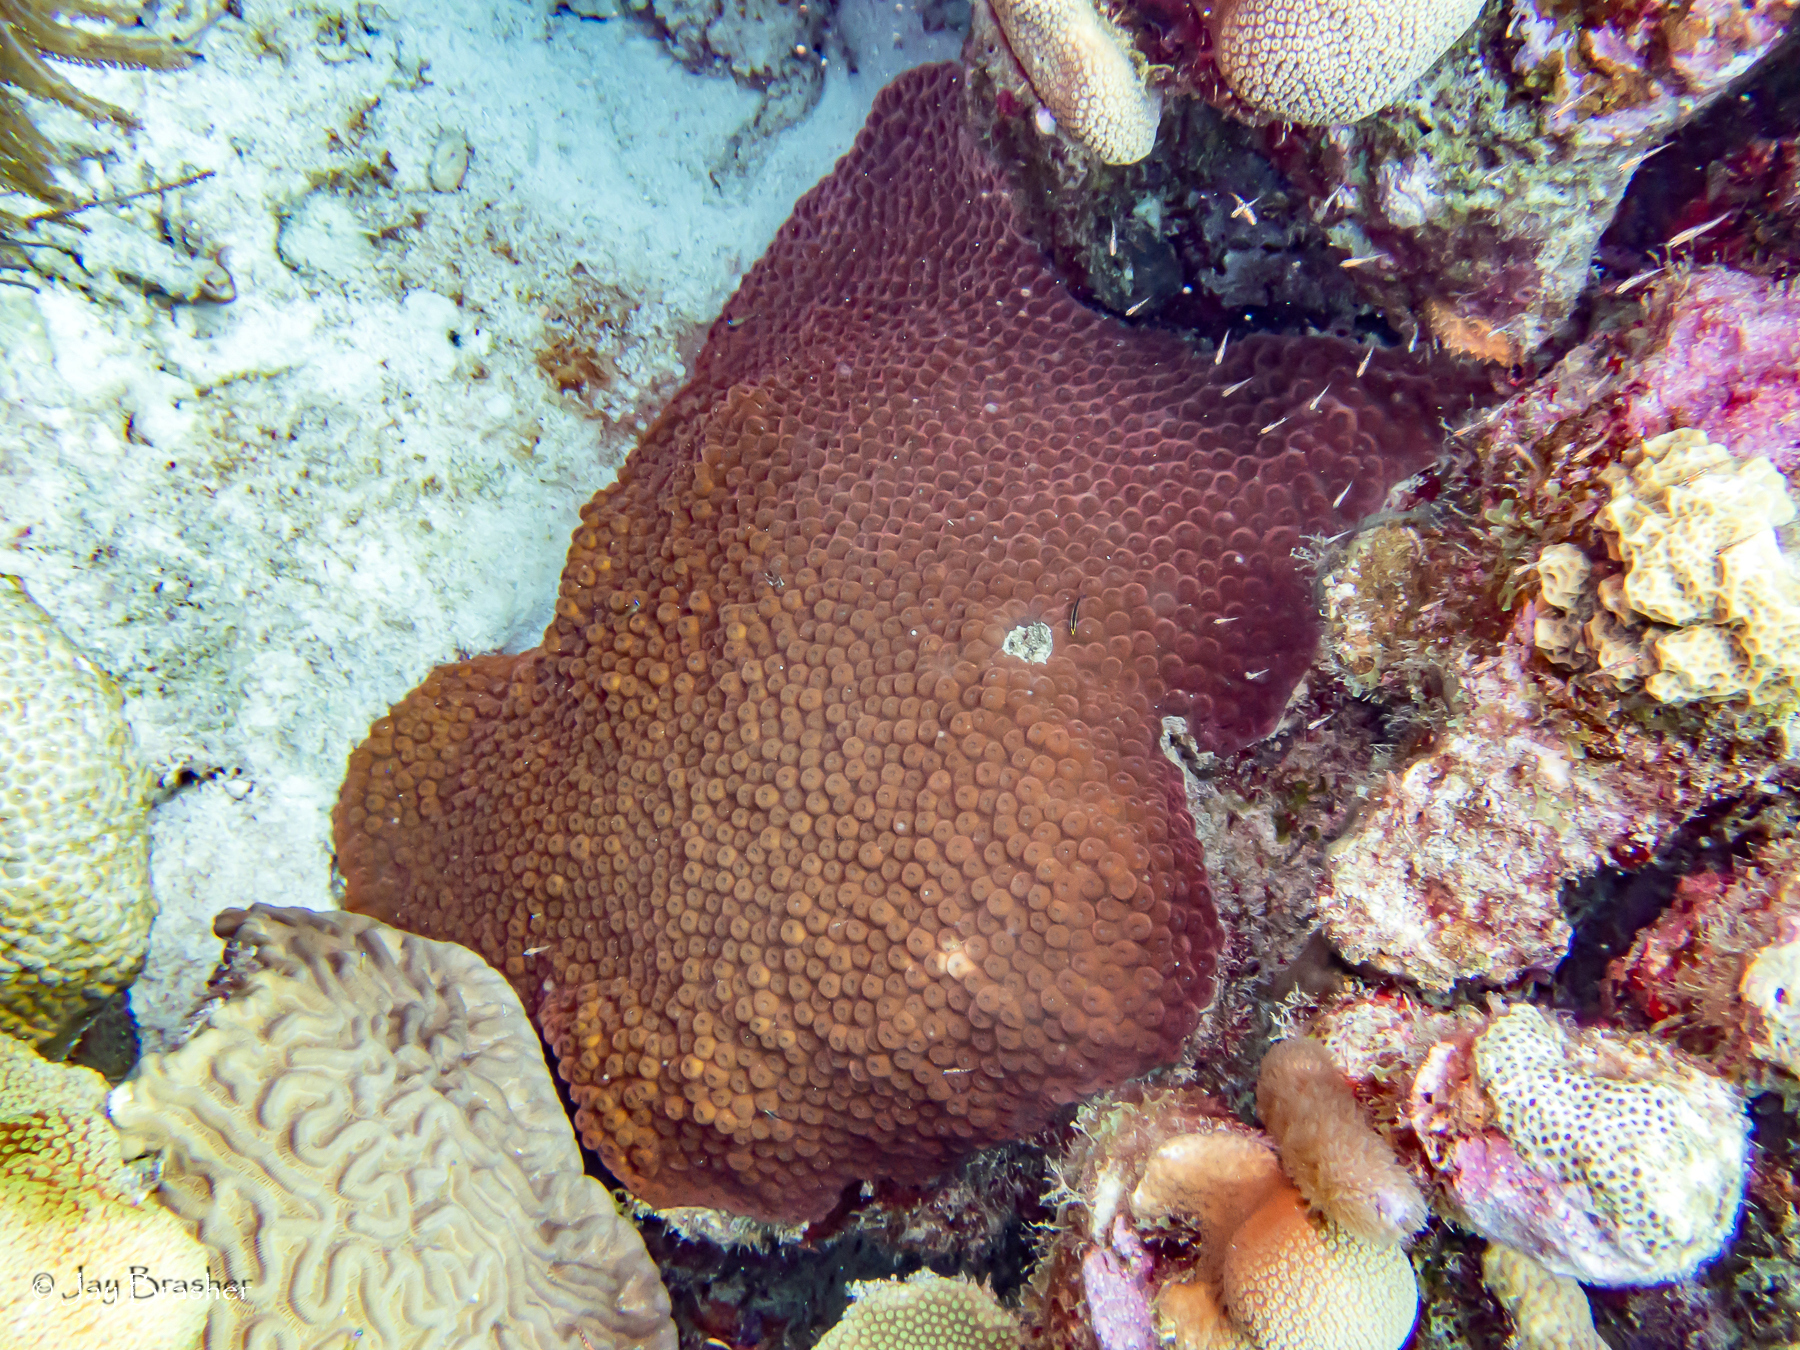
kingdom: Animalia
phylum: Cnidaria
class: Anthozoa
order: Scleractinia
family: Montastraeidae
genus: Montastraea
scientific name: Montastraea cavernosa
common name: Great star coral
